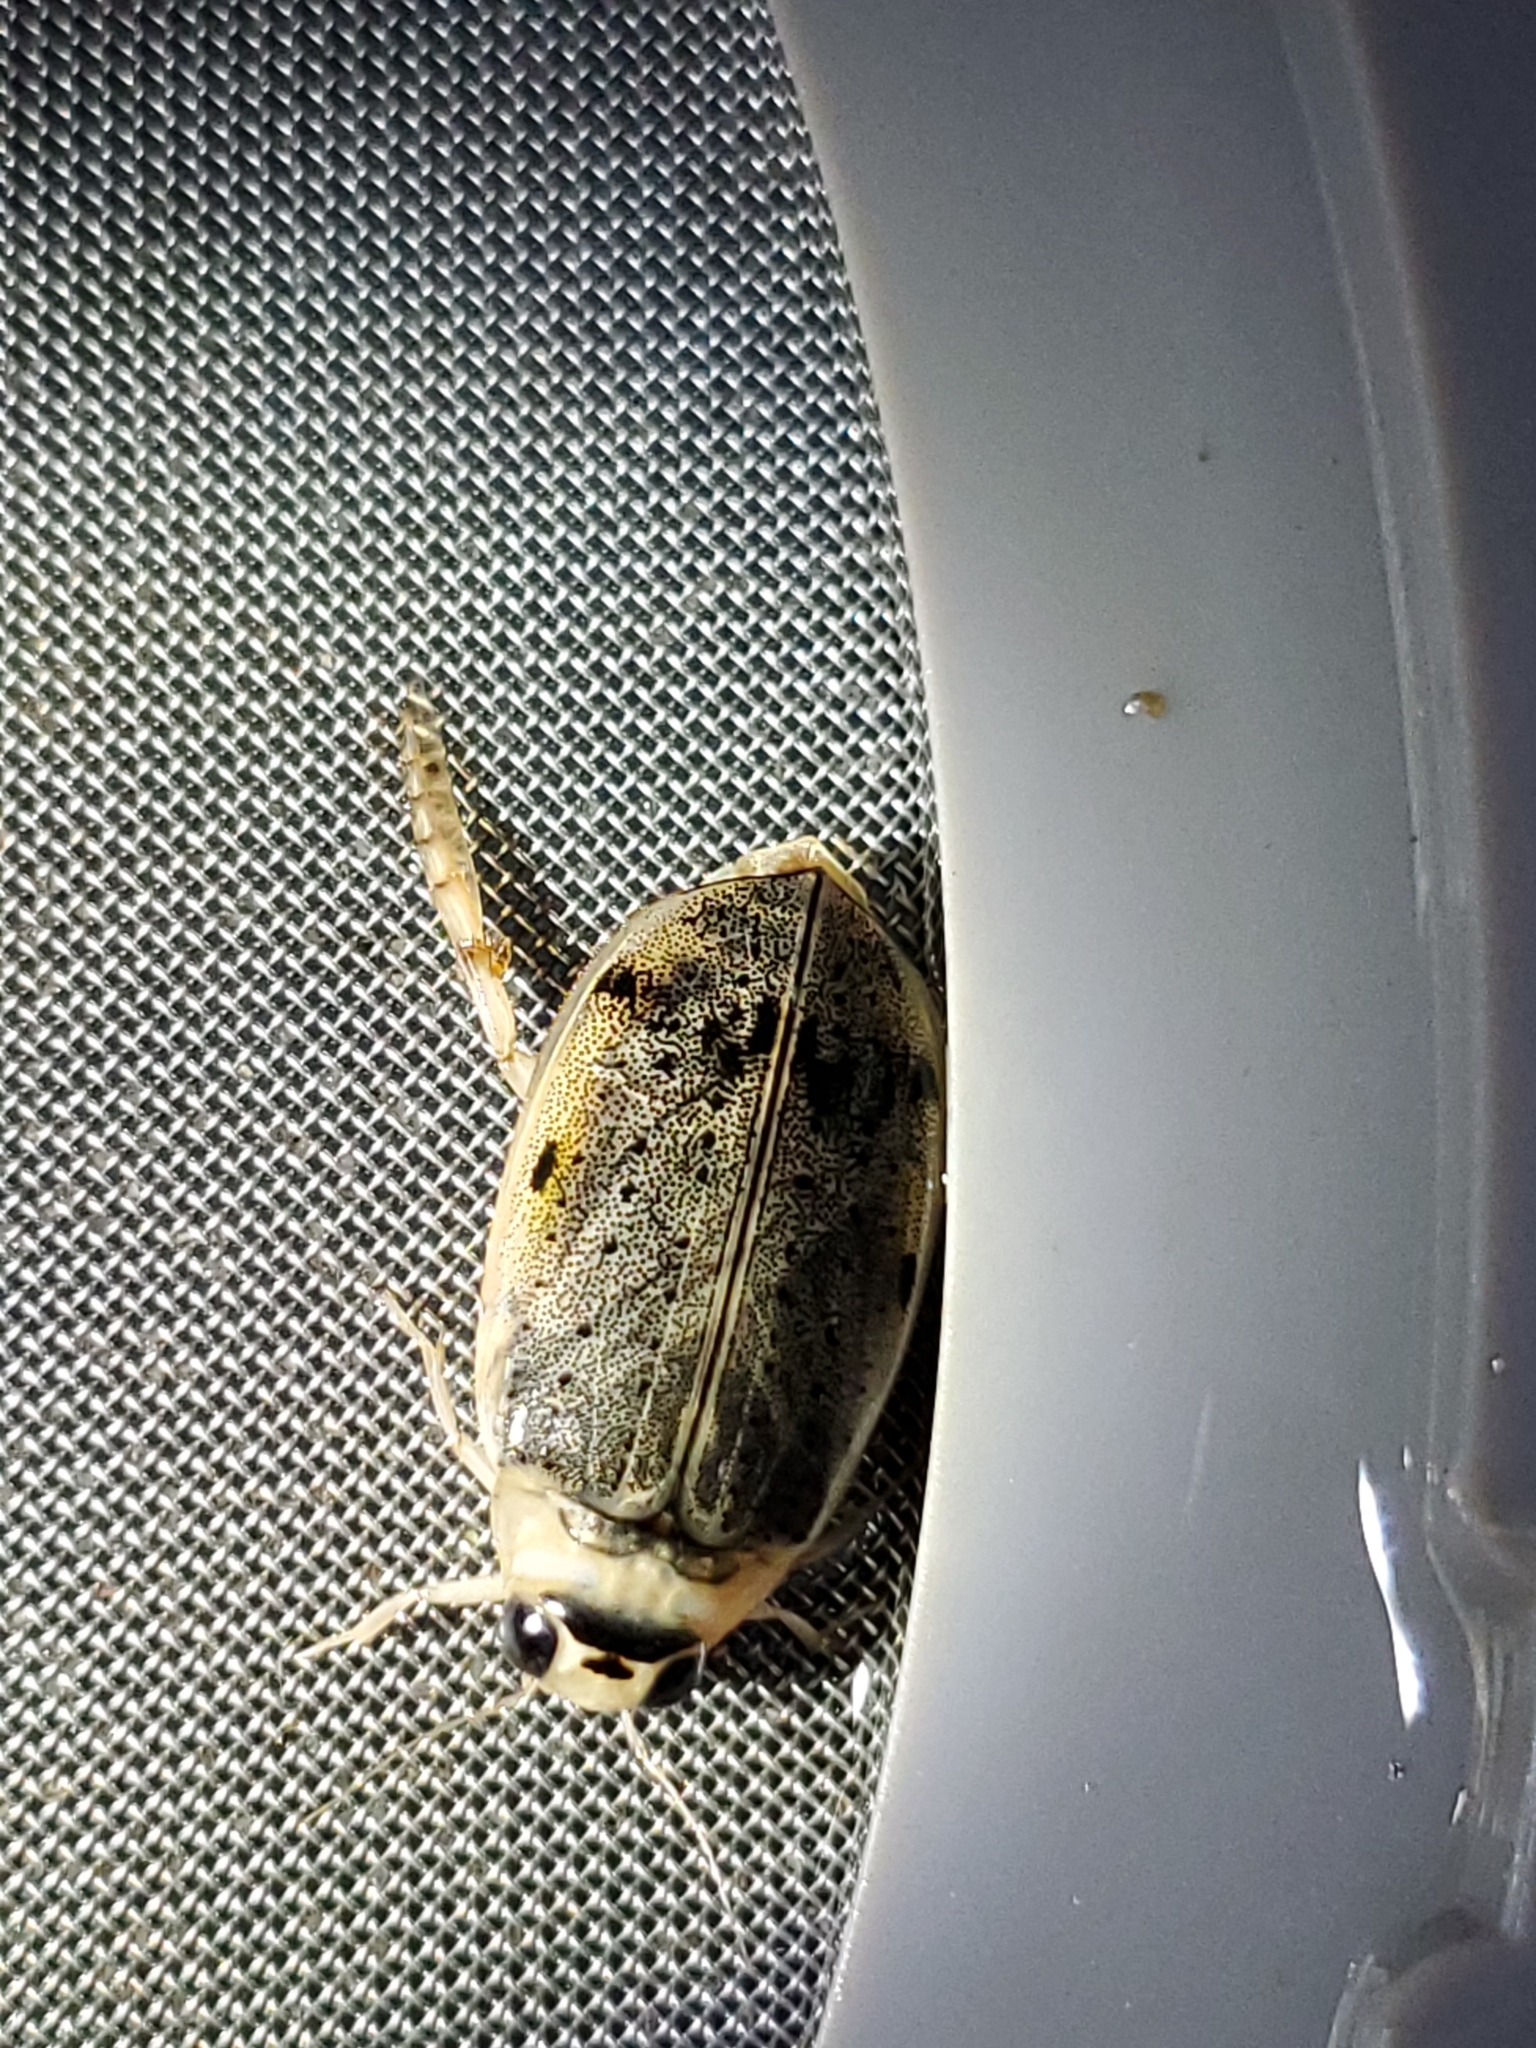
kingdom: Animalia
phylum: Arthropoda
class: Insecta
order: Coleoptera
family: Dytiscidae
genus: Eretes
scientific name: Eretes explicitus
